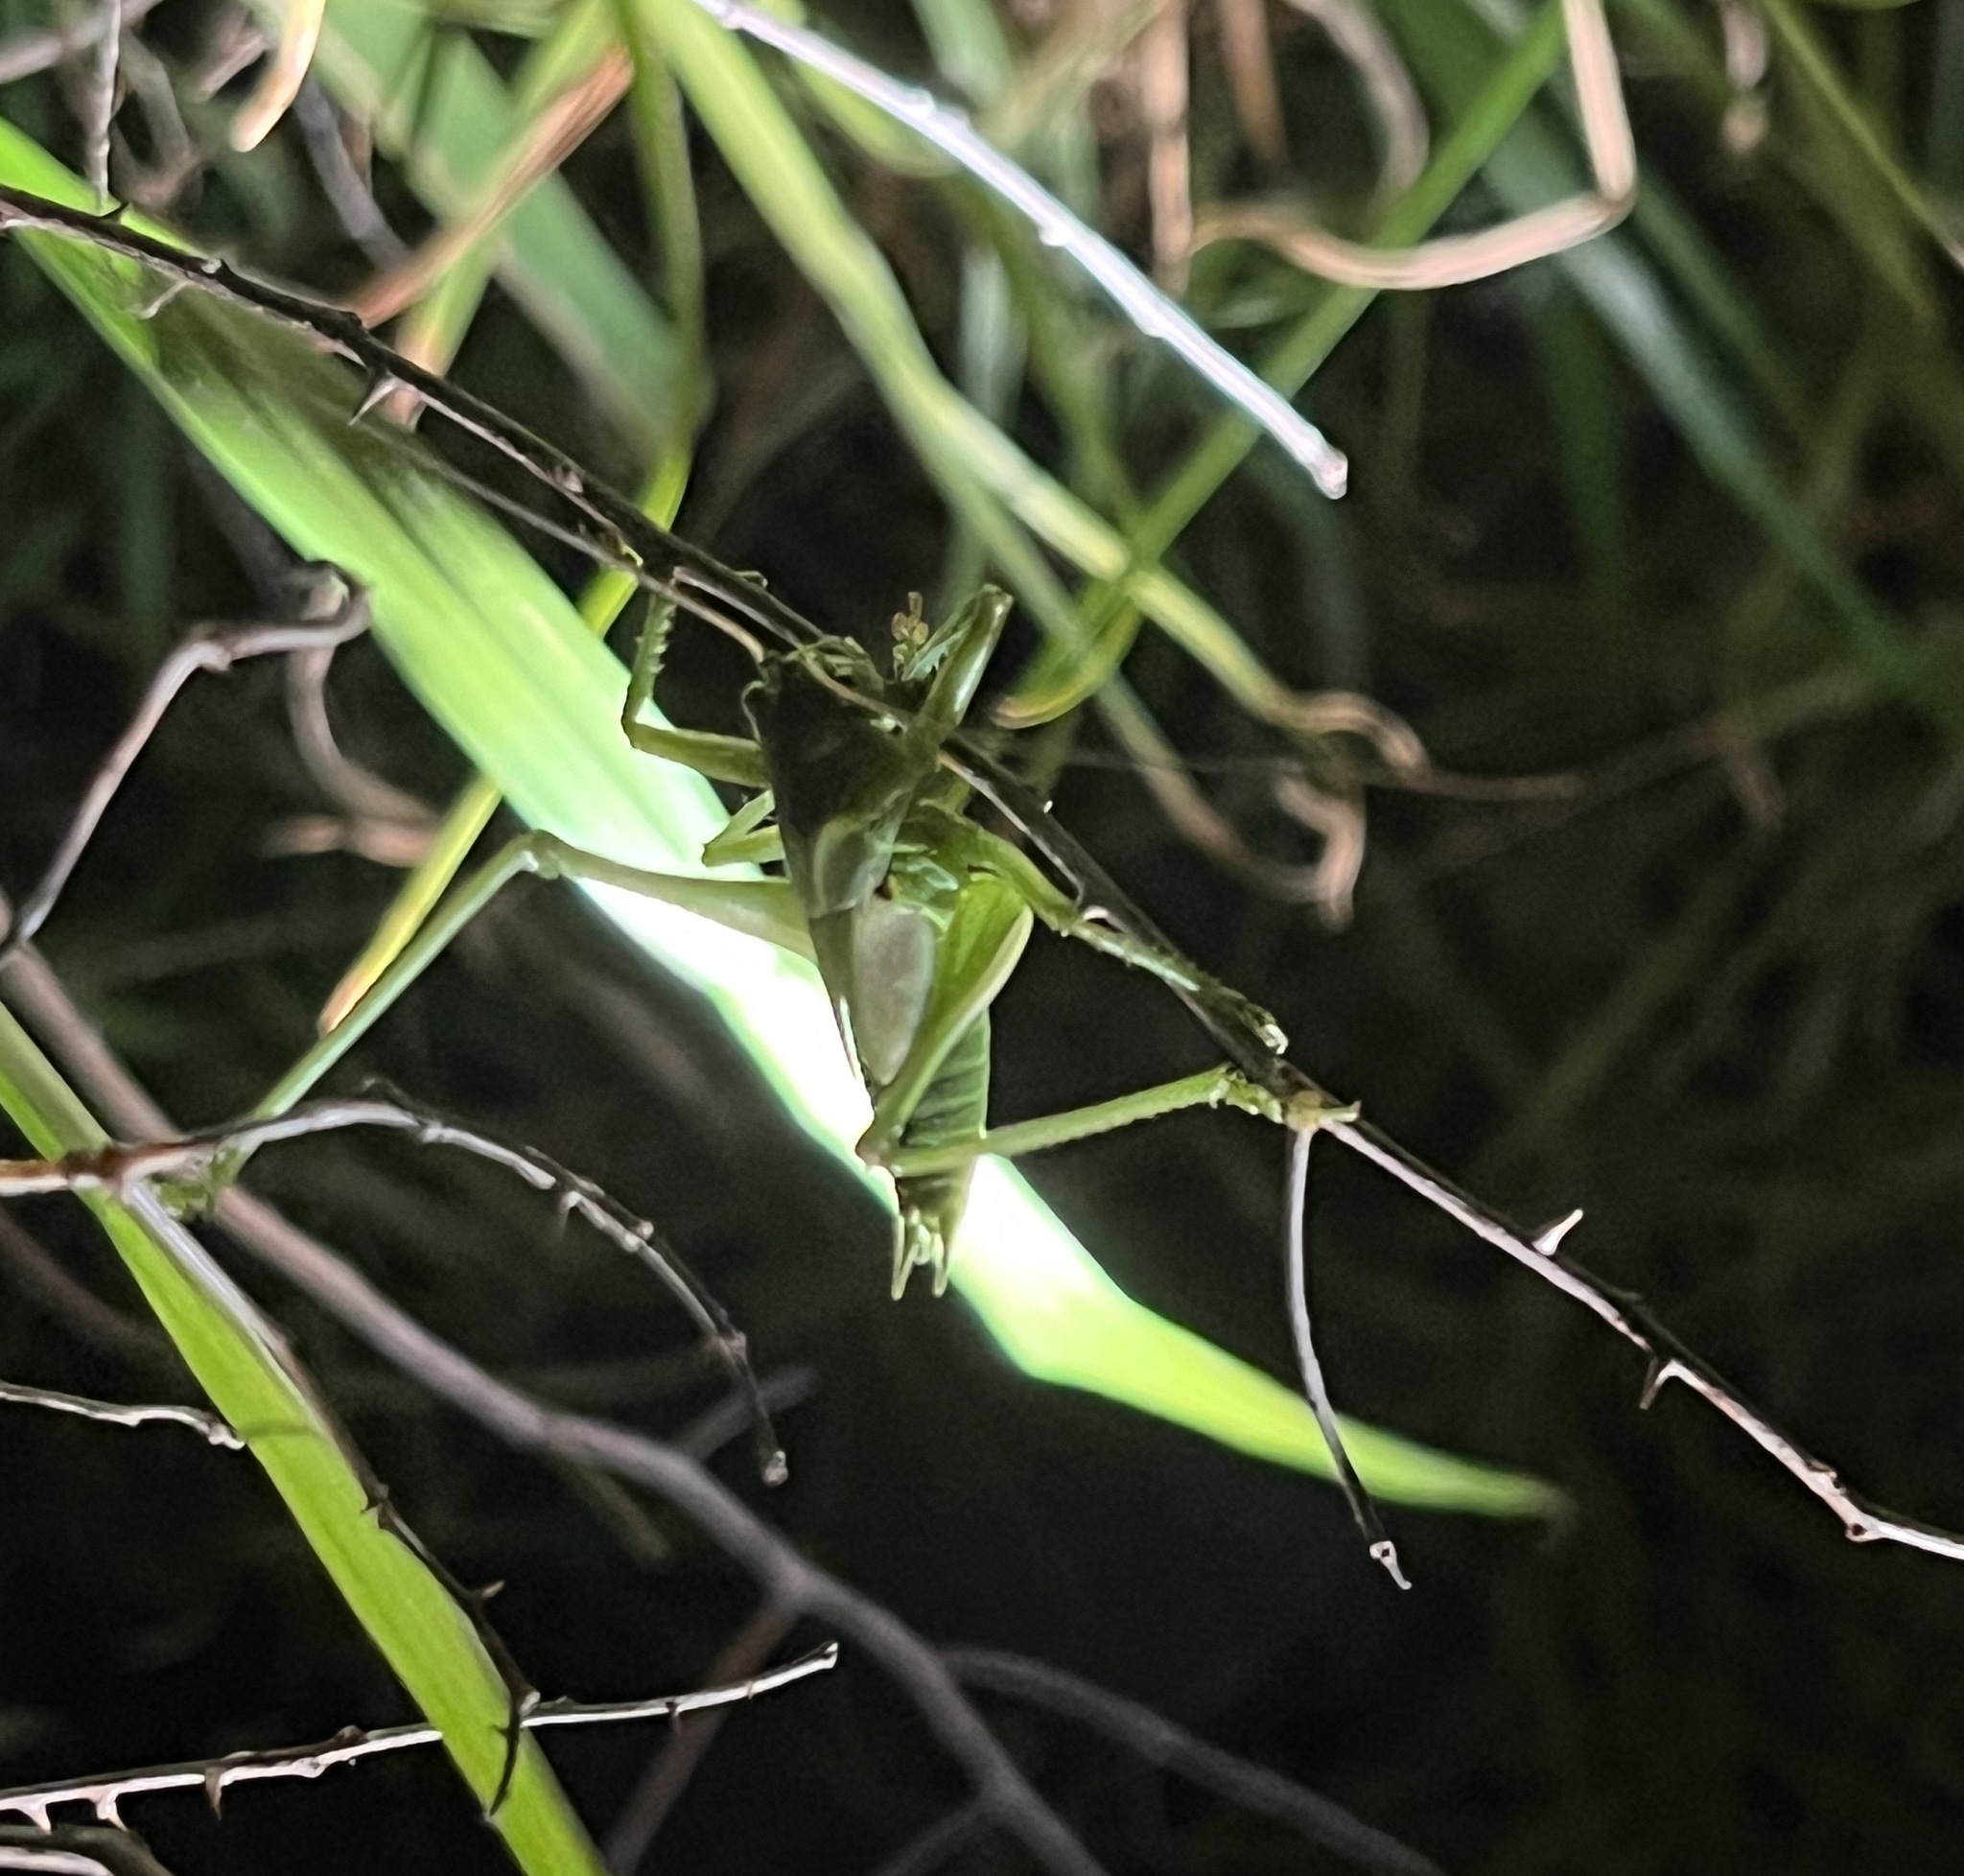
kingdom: Animalia
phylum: Arthropoda
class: Insecta
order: Orthoptera
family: Tettigoniidae
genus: Tettigonia
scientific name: Tettigonia viridissima
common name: Great green bush-cricket
